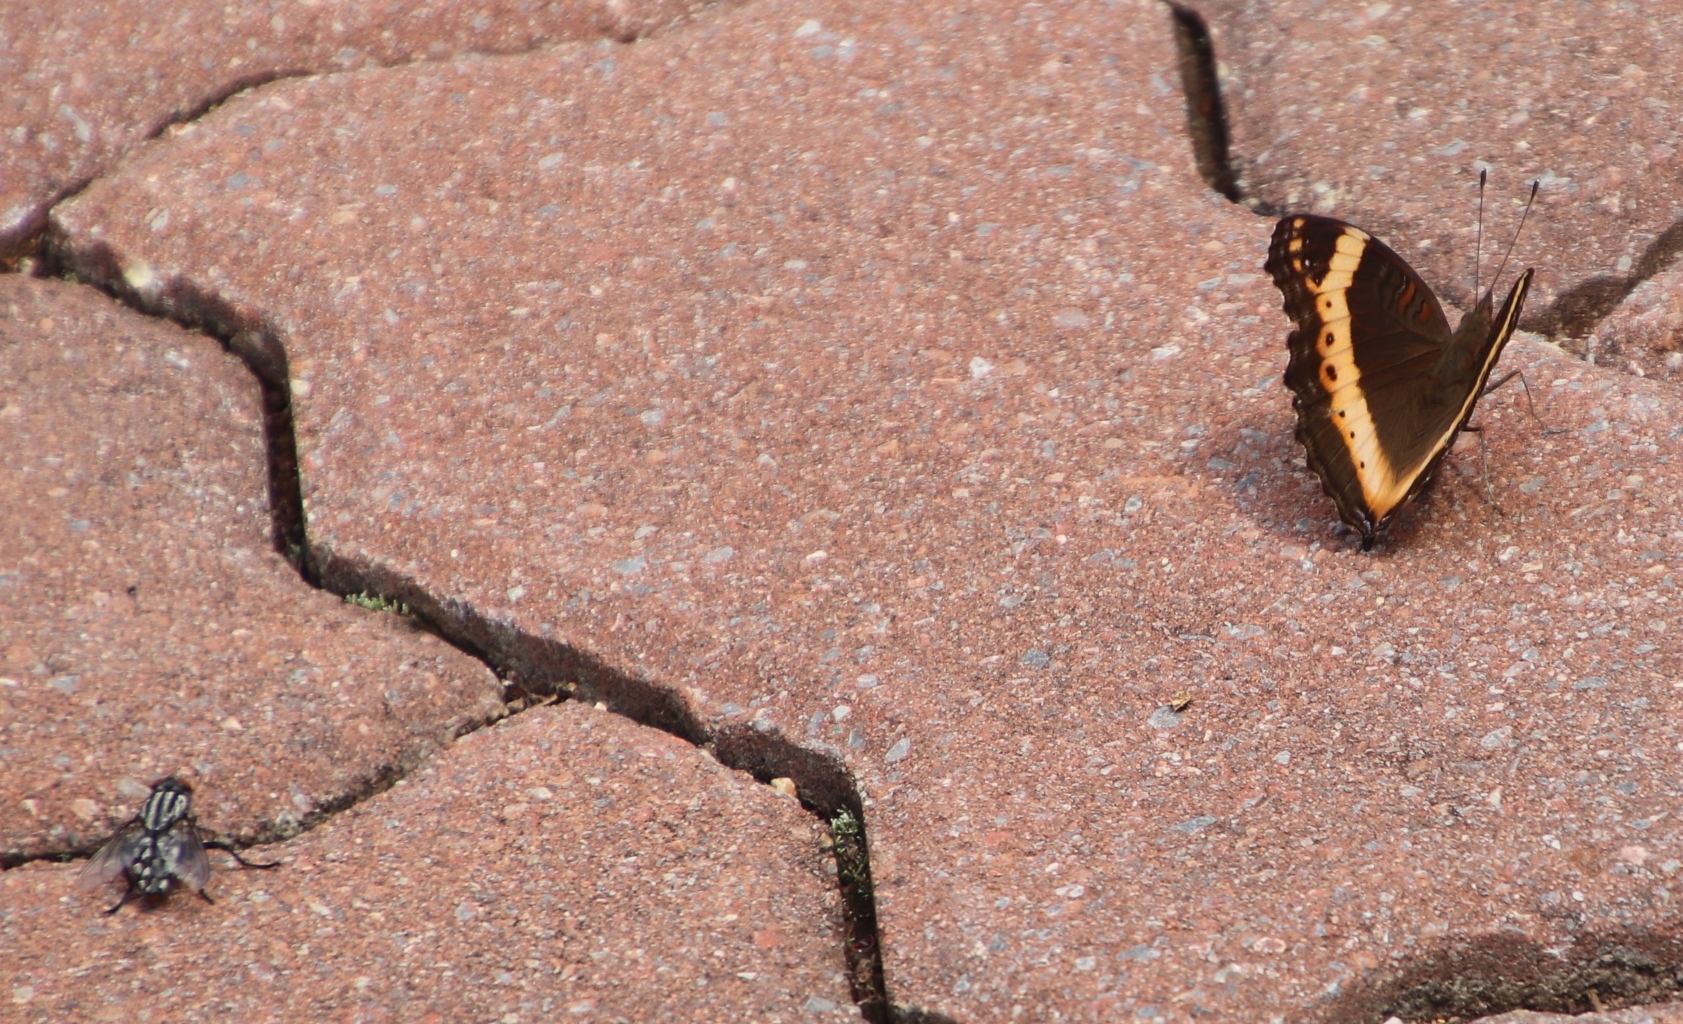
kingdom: Animalia
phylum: Arthropoda
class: Insecta
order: Lepidoptera
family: Nymphalidae
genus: Junonia
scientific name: Junonia archesia
